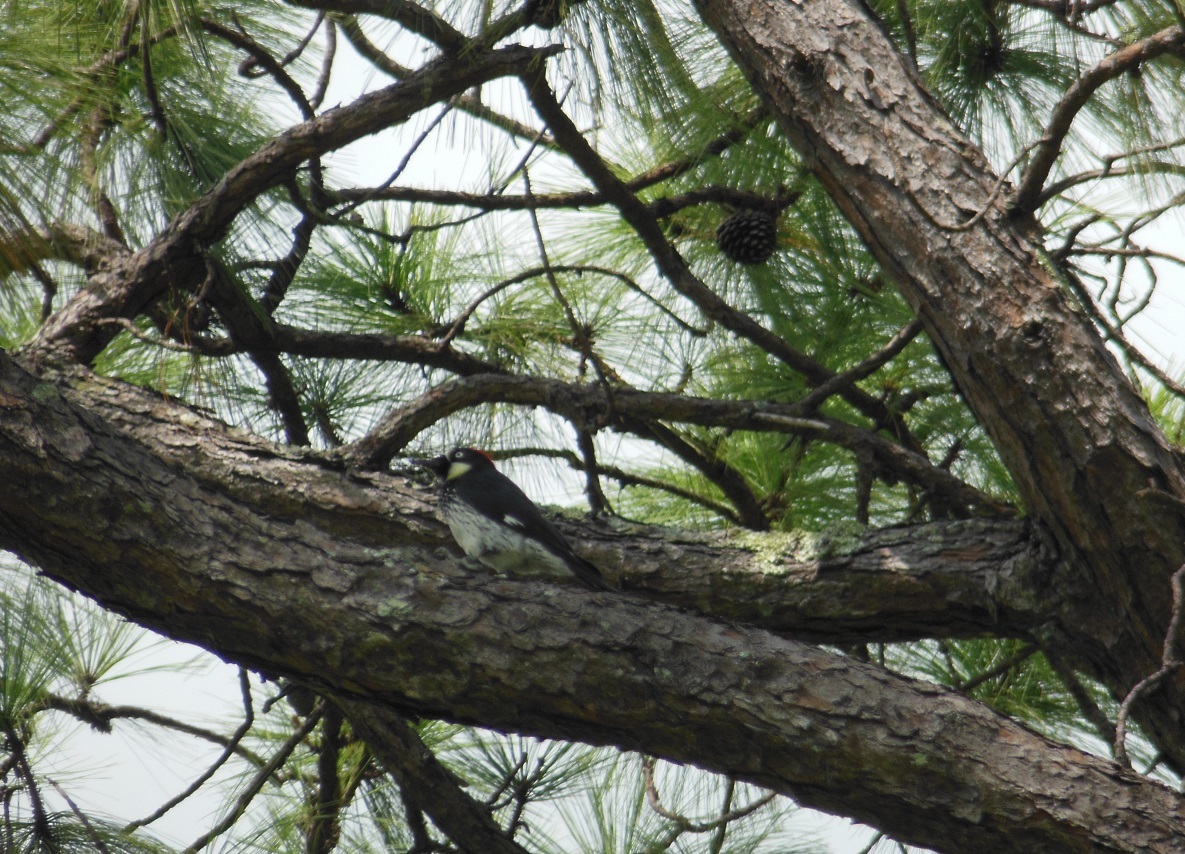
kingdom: Animalia
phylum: Chordata
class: Aves
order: Piciformes
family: Picidae
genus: Melanerpes
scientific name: Melanerpes formicivorus
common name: Acorn woodpecker
